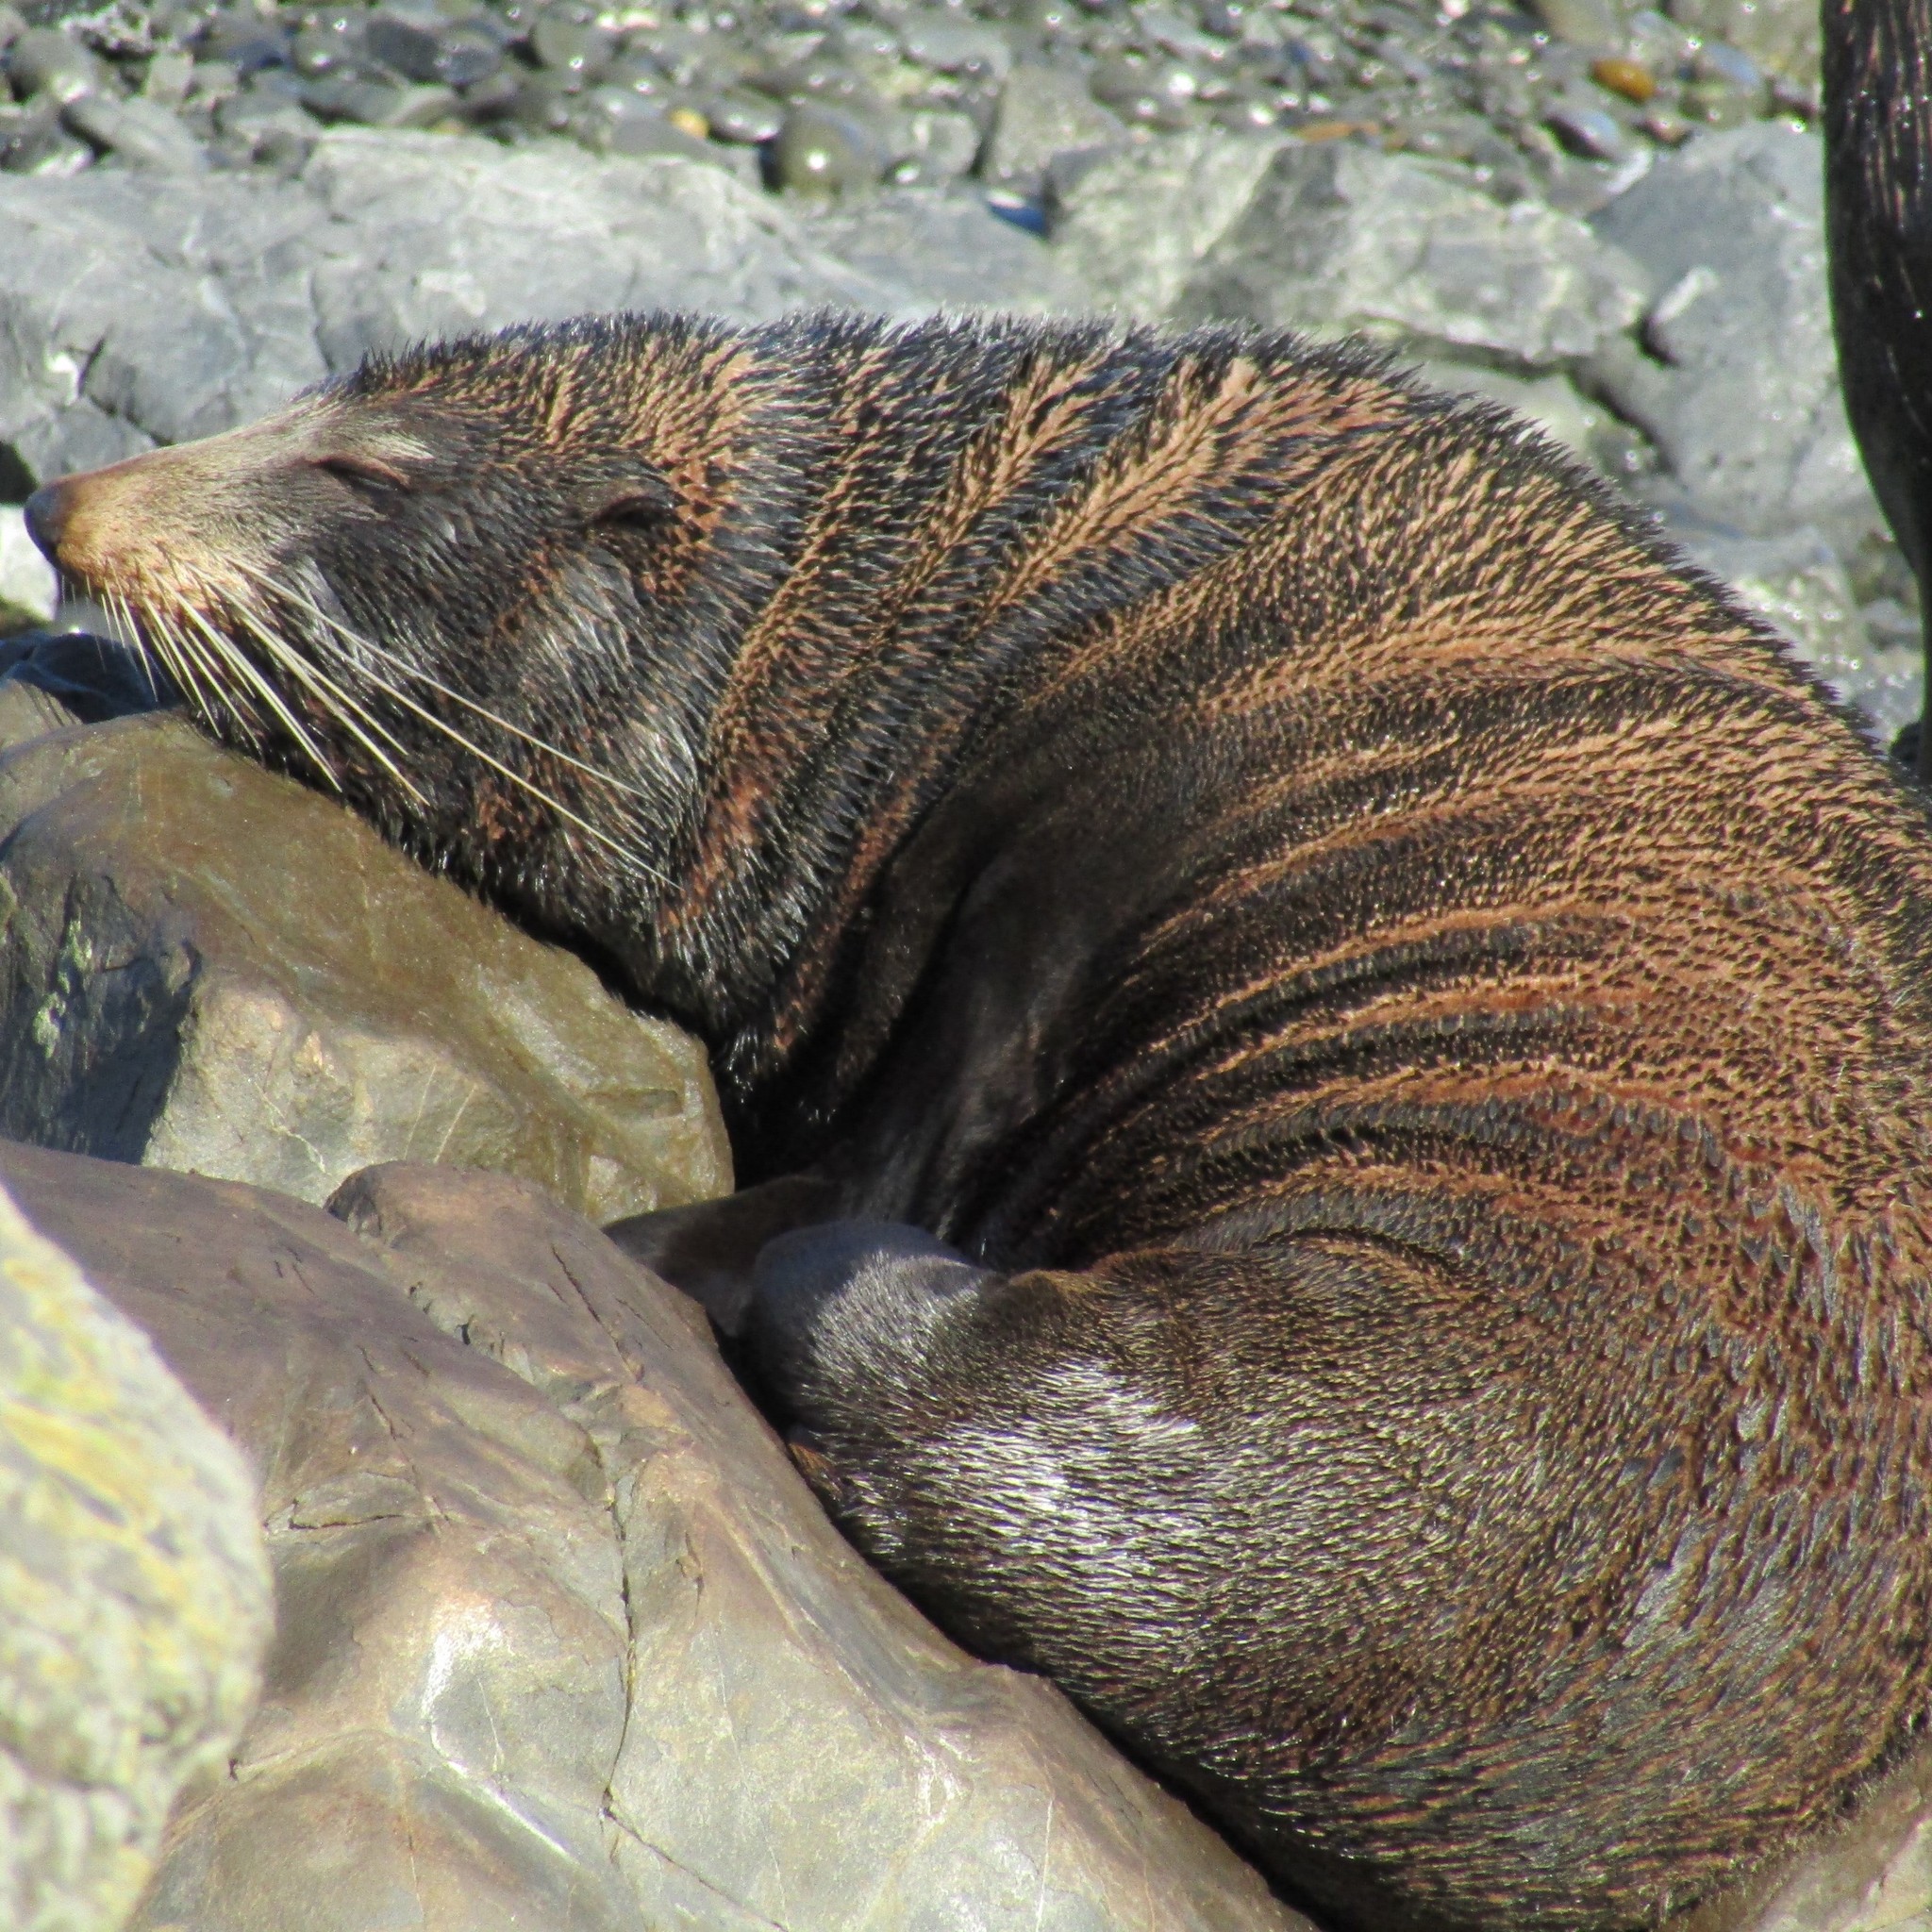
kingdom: Animalia
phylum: Chordata
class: Mammalia
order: Carnivora
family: Otariidae
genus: Arctocephalus
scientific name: Arctocephalus forsteri
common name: New zealand fur seal
